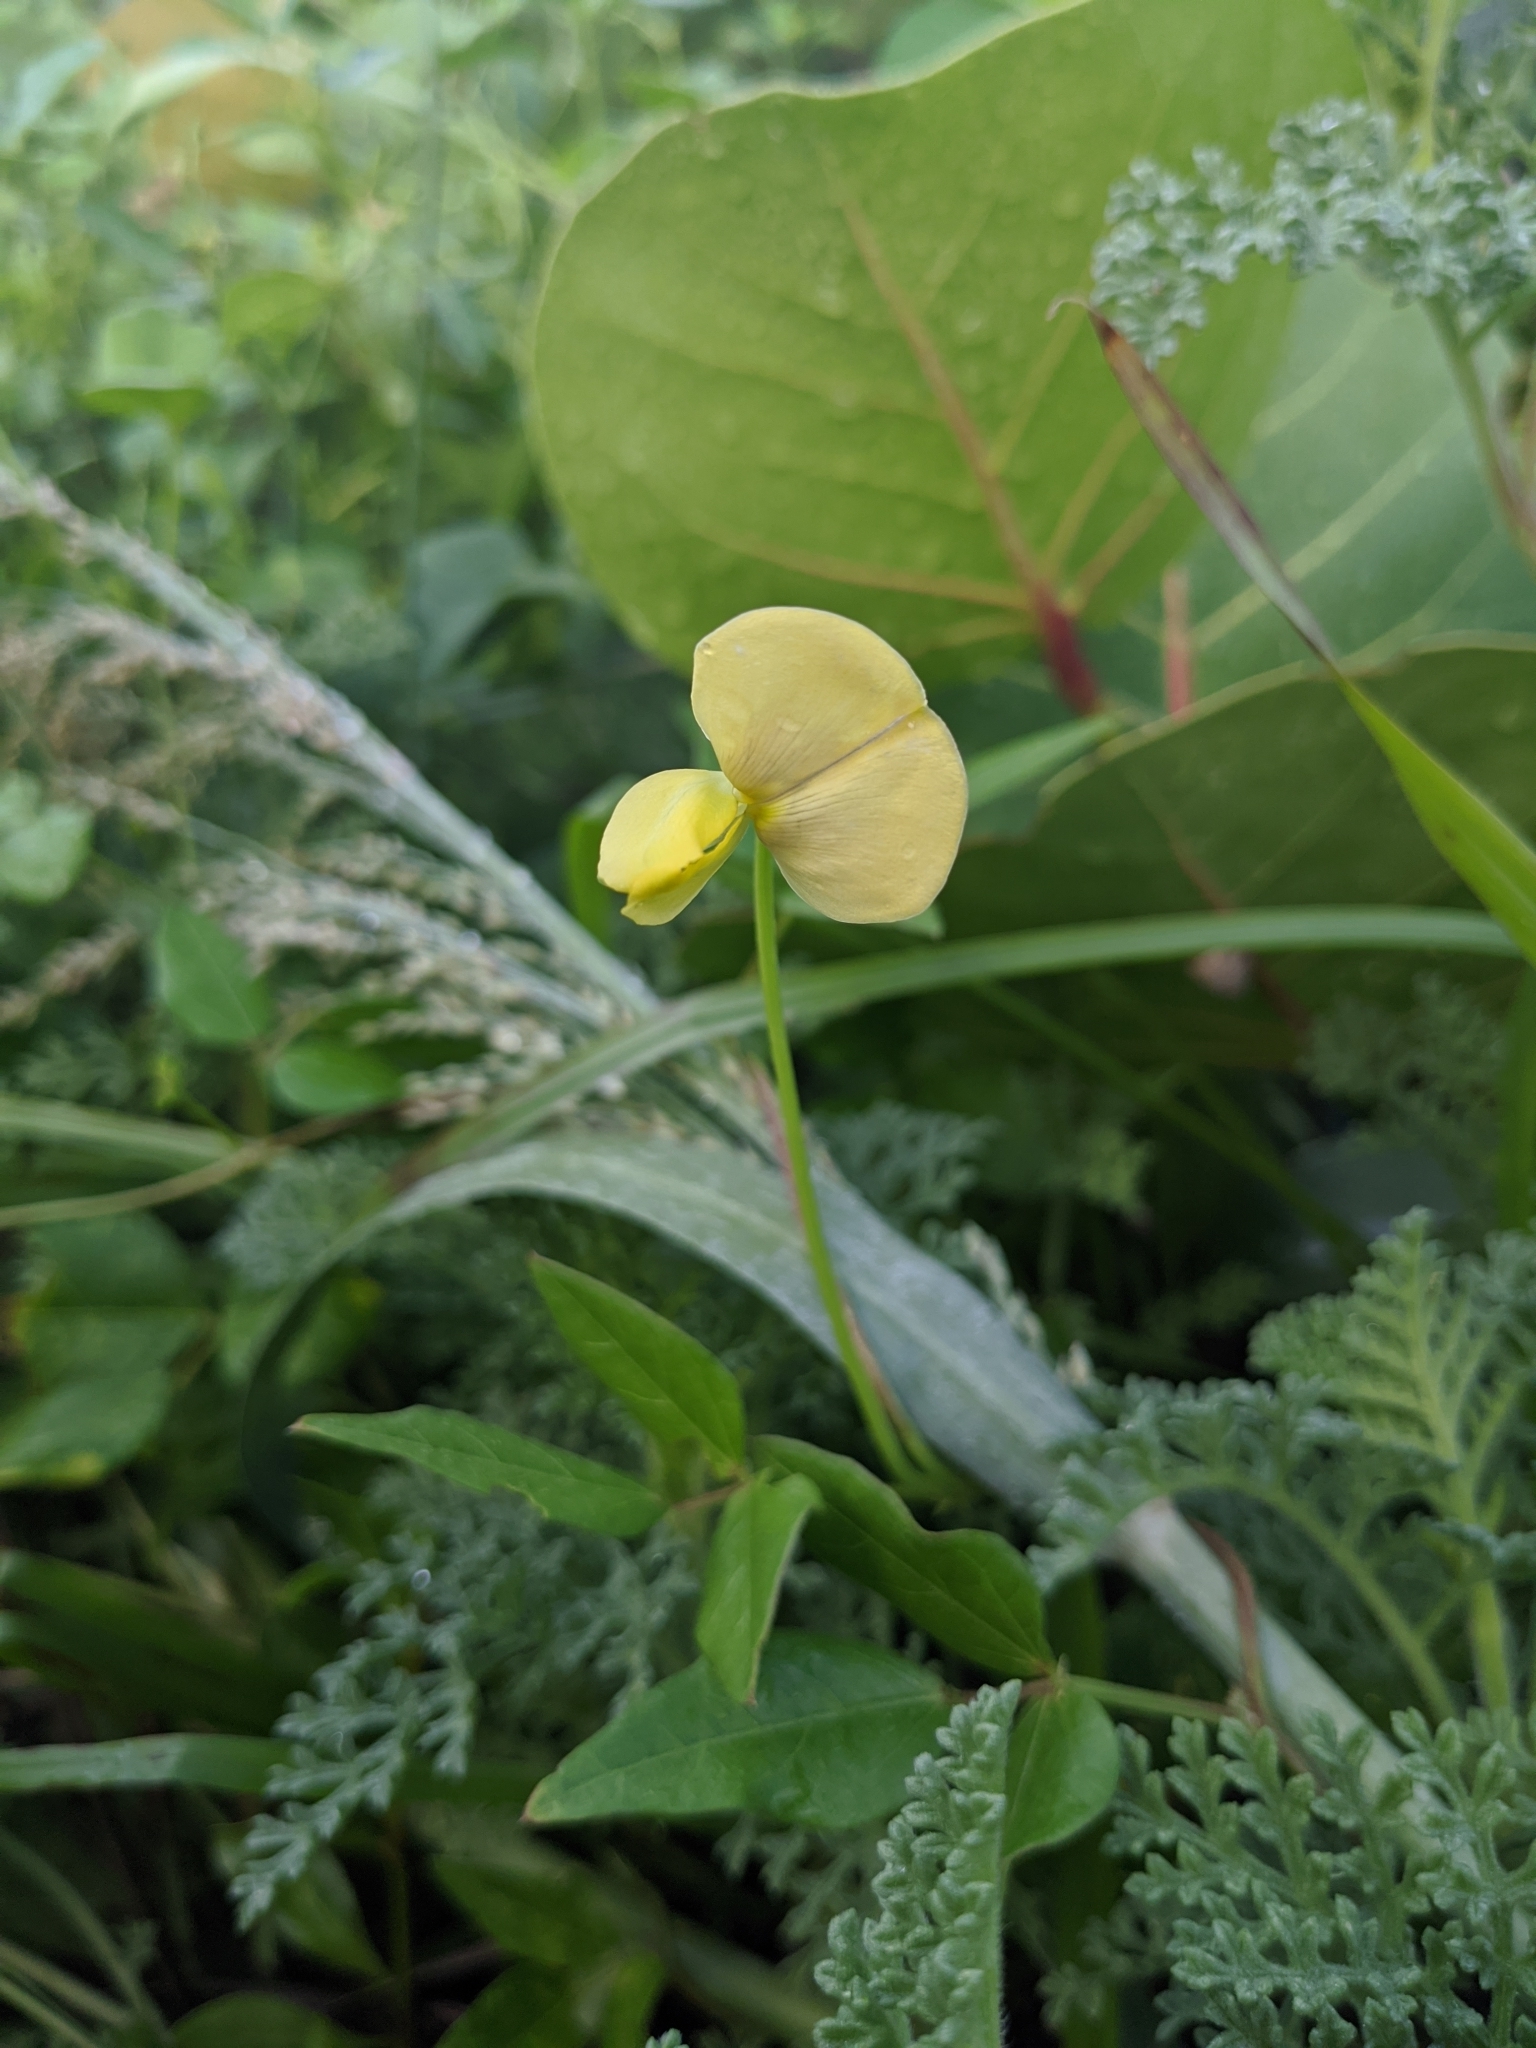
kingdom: Plantae
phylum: Tracheophyta
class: Magnoliopsida
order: Fabales
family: Fabaceae
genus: Vigna
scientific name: Vigna luteola
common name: Hairypod cowpea
